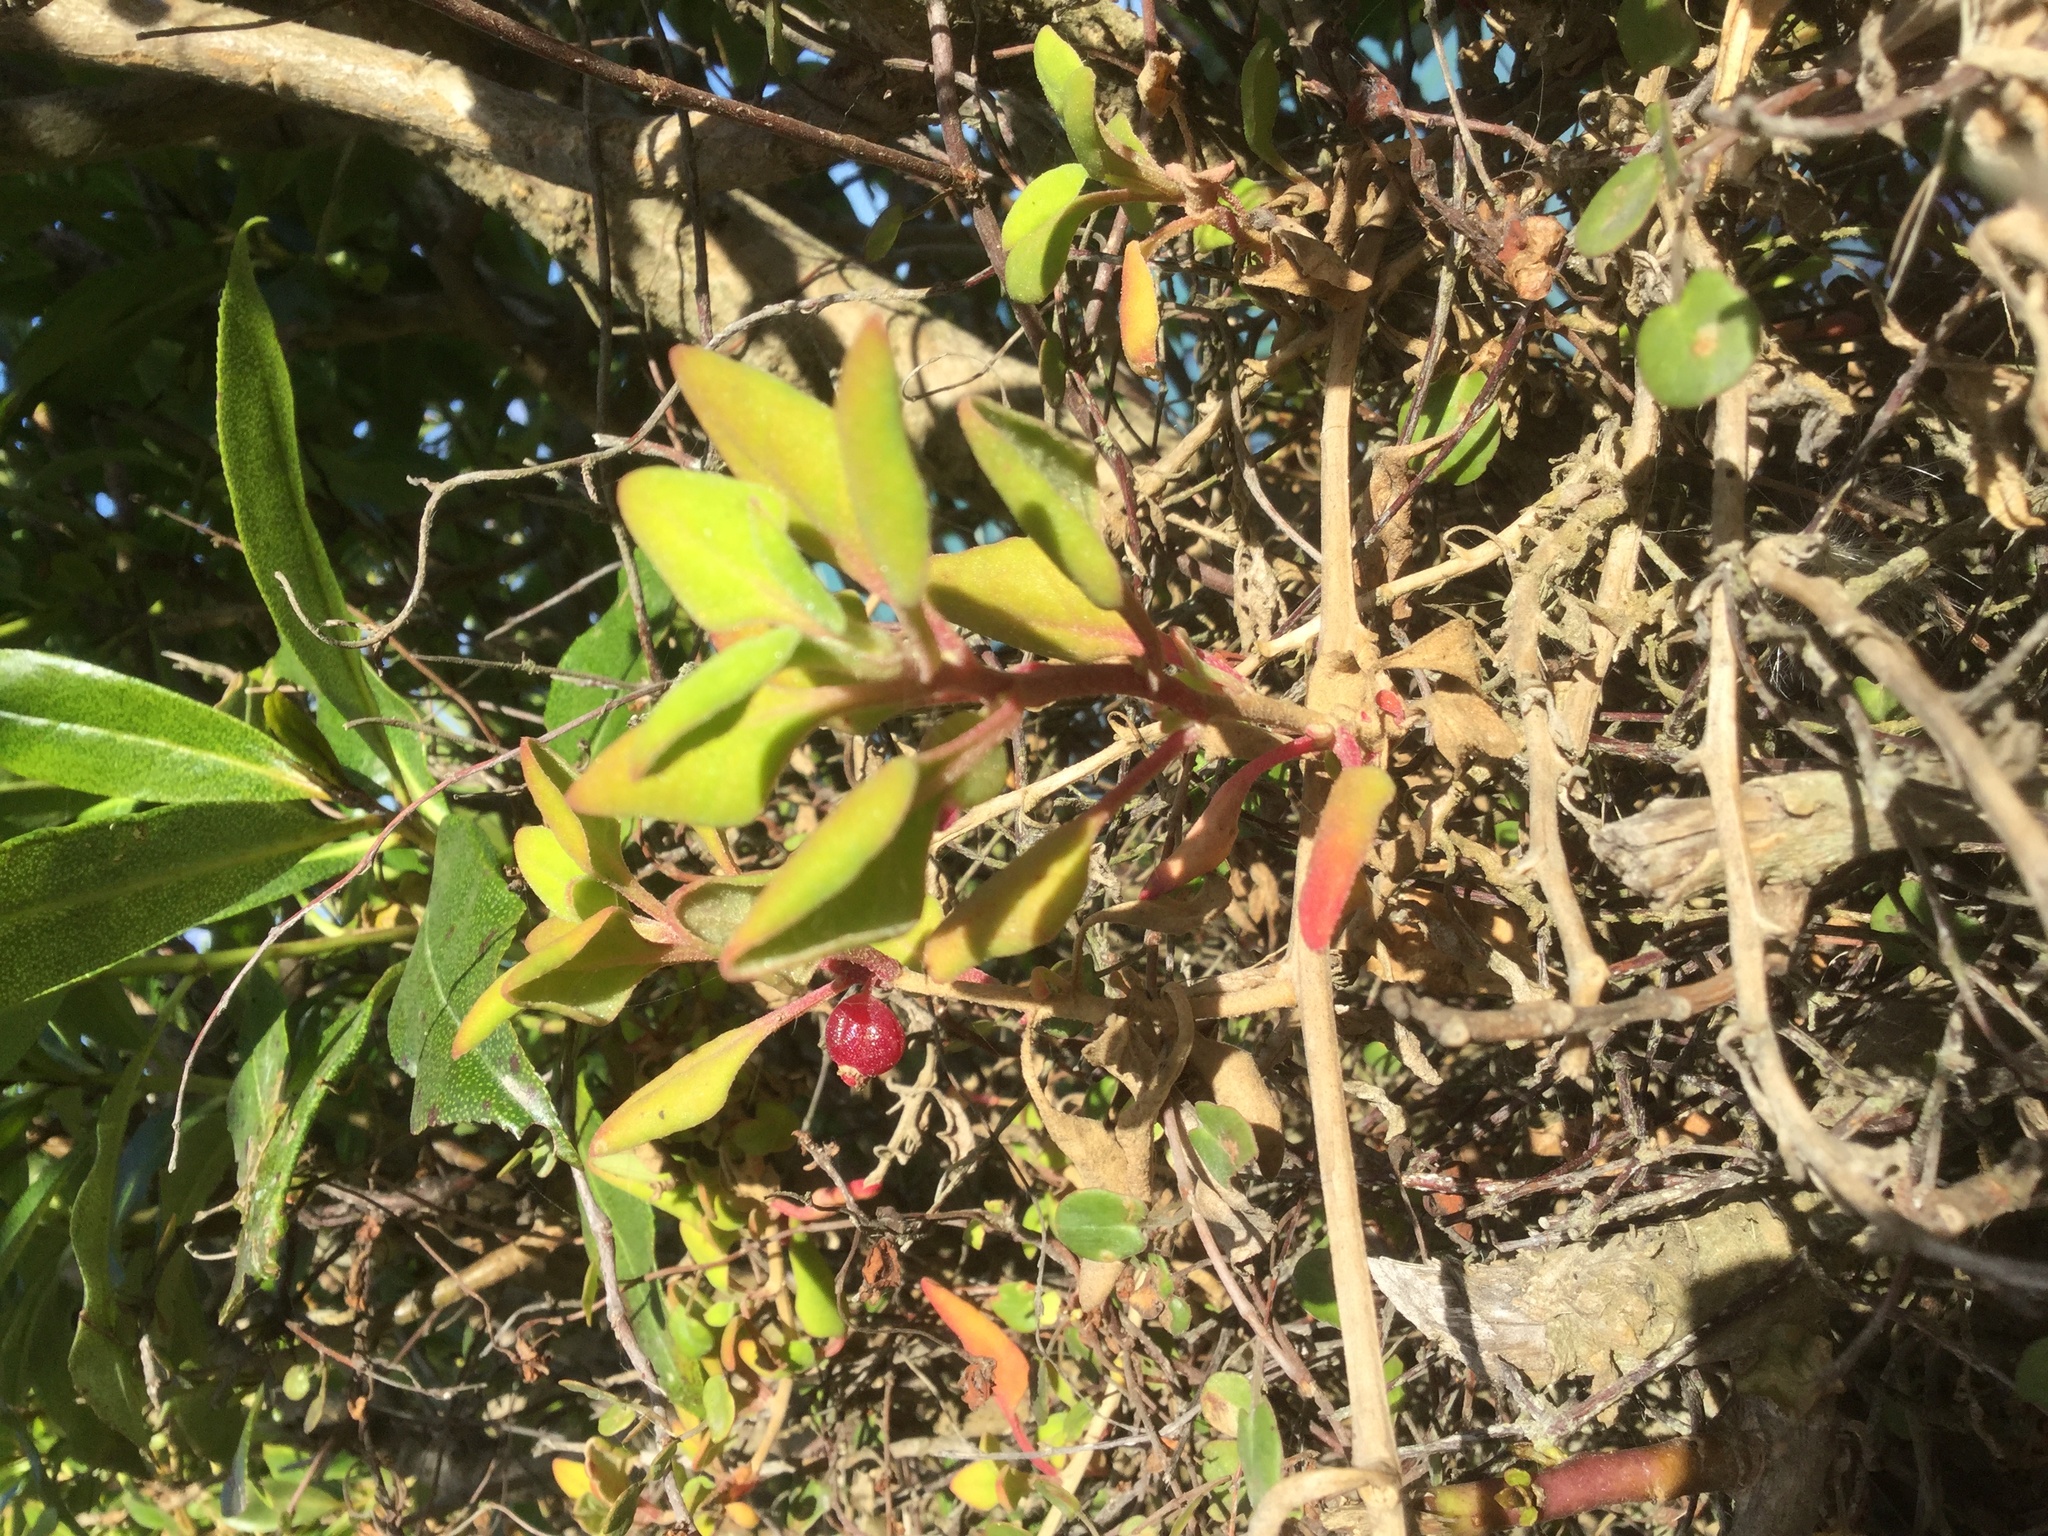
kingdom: Plantae
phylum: Tracheophyta
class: Magnoliopsida
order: Caryophyllales
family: Aizoaceae
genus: Tetragonia
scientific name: Tetragonia implexicoma
